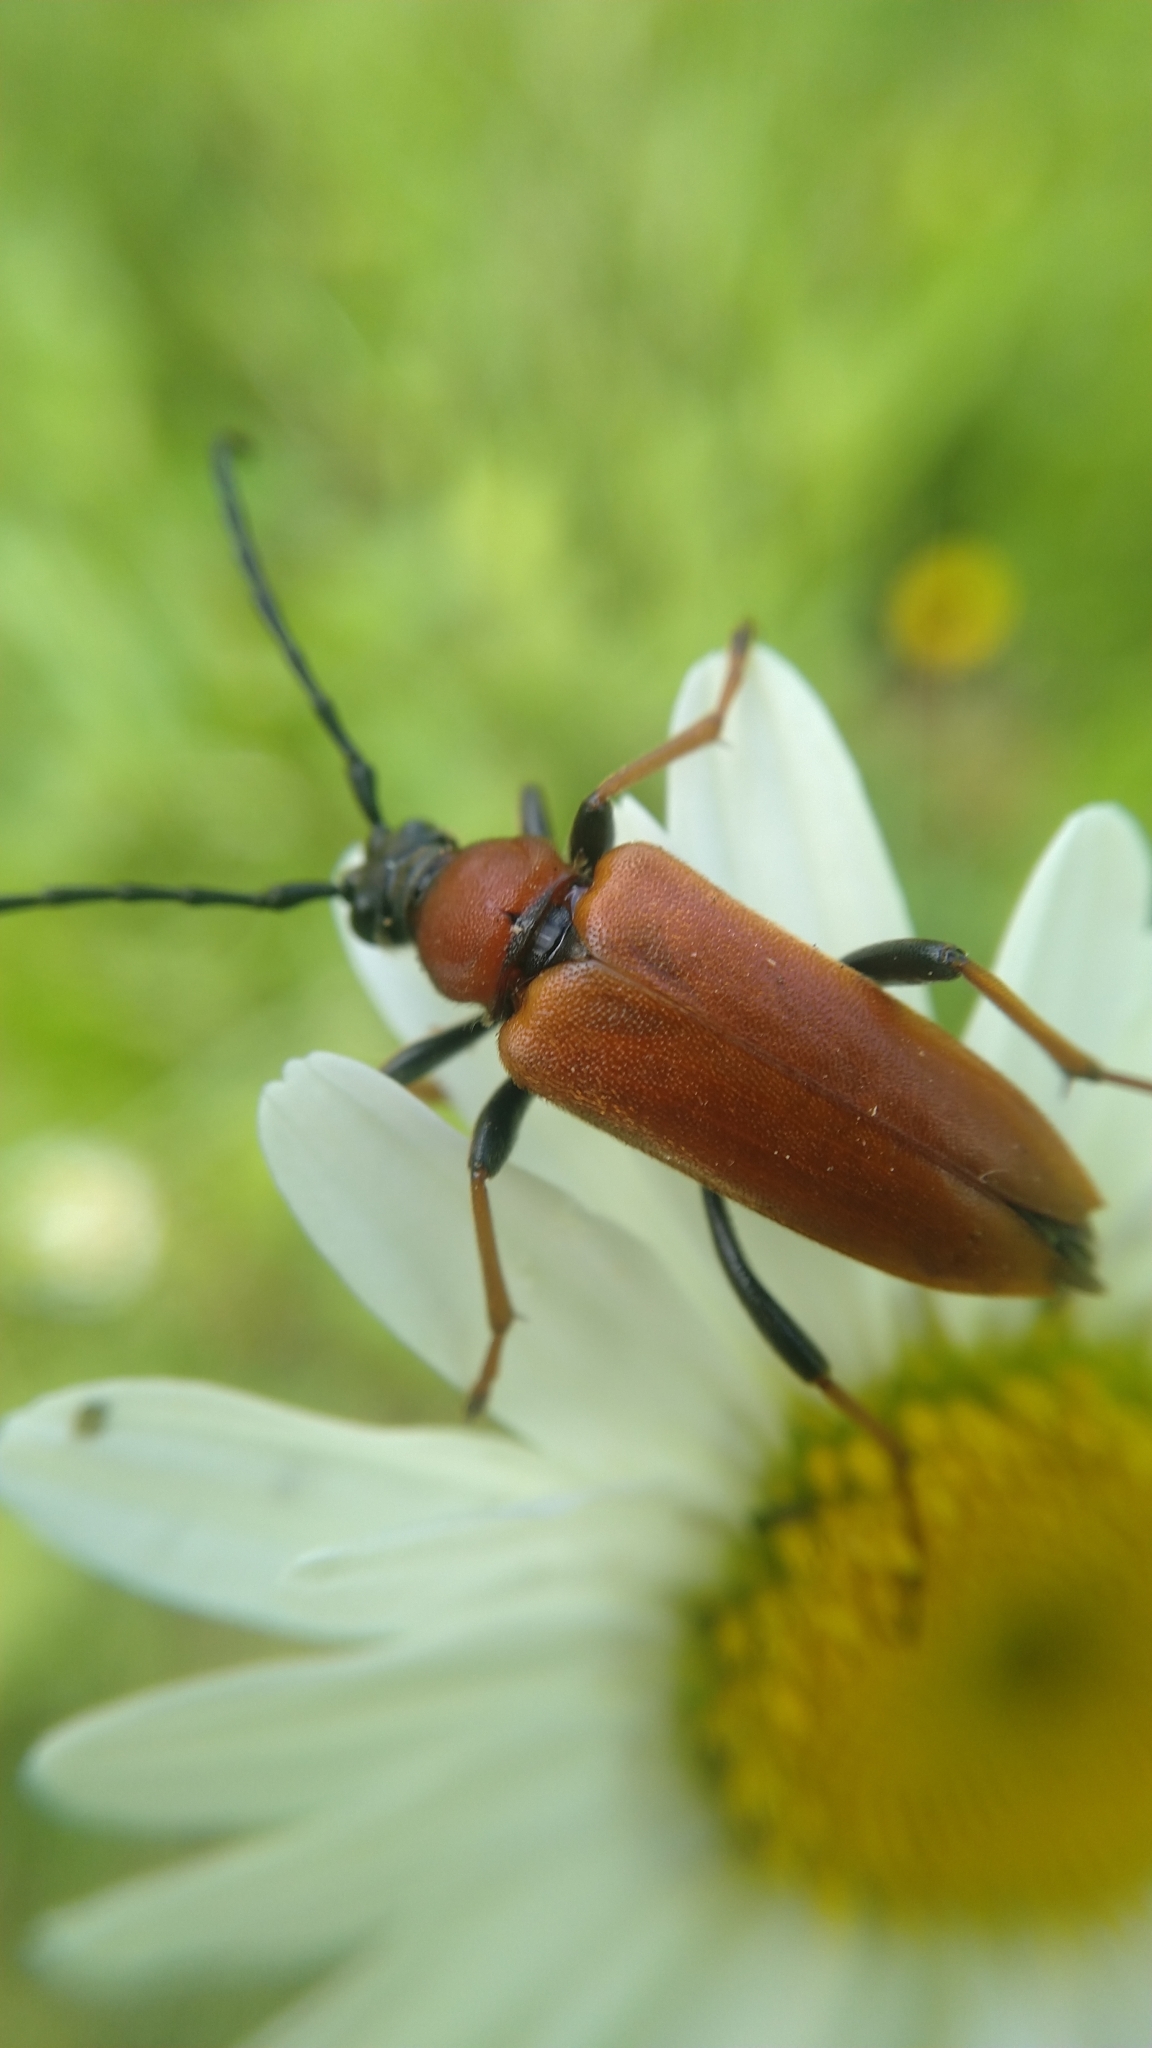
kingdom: Animalia
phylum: Arthropoda
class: Insecta
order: Coleoptera
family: Cerambycidae
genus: Stictoleptura
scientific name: Stictoleptura rubra
